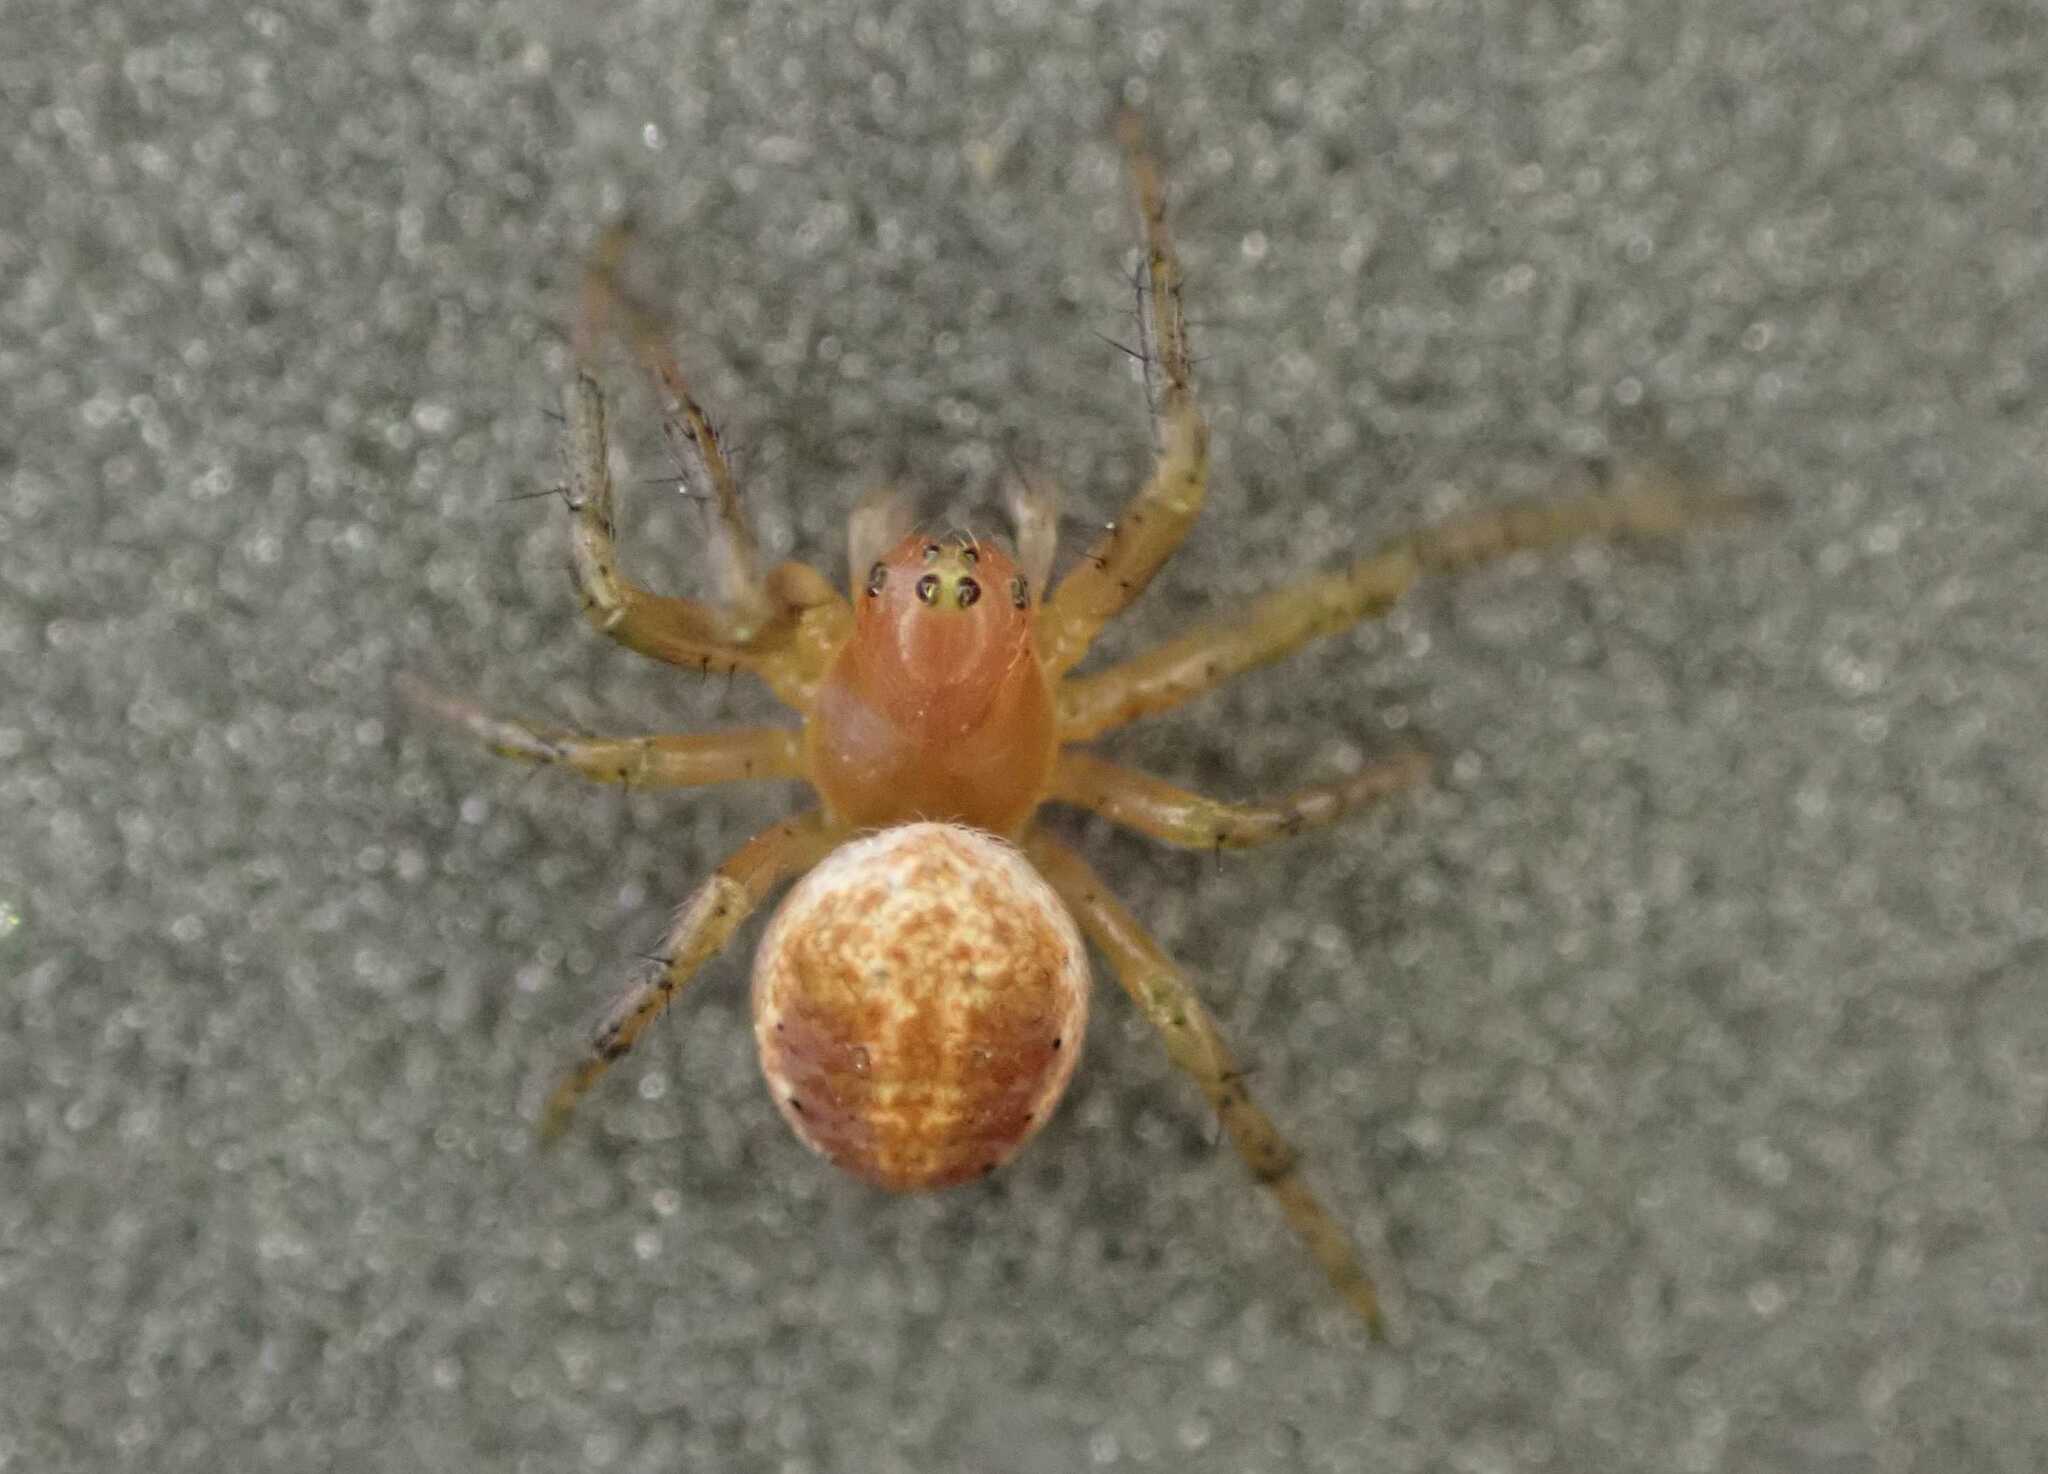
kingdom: Animalia
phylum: Arthropoda
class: Arachnida
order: Araneae
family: Araneidae
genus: Araniella
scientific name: Araniella
